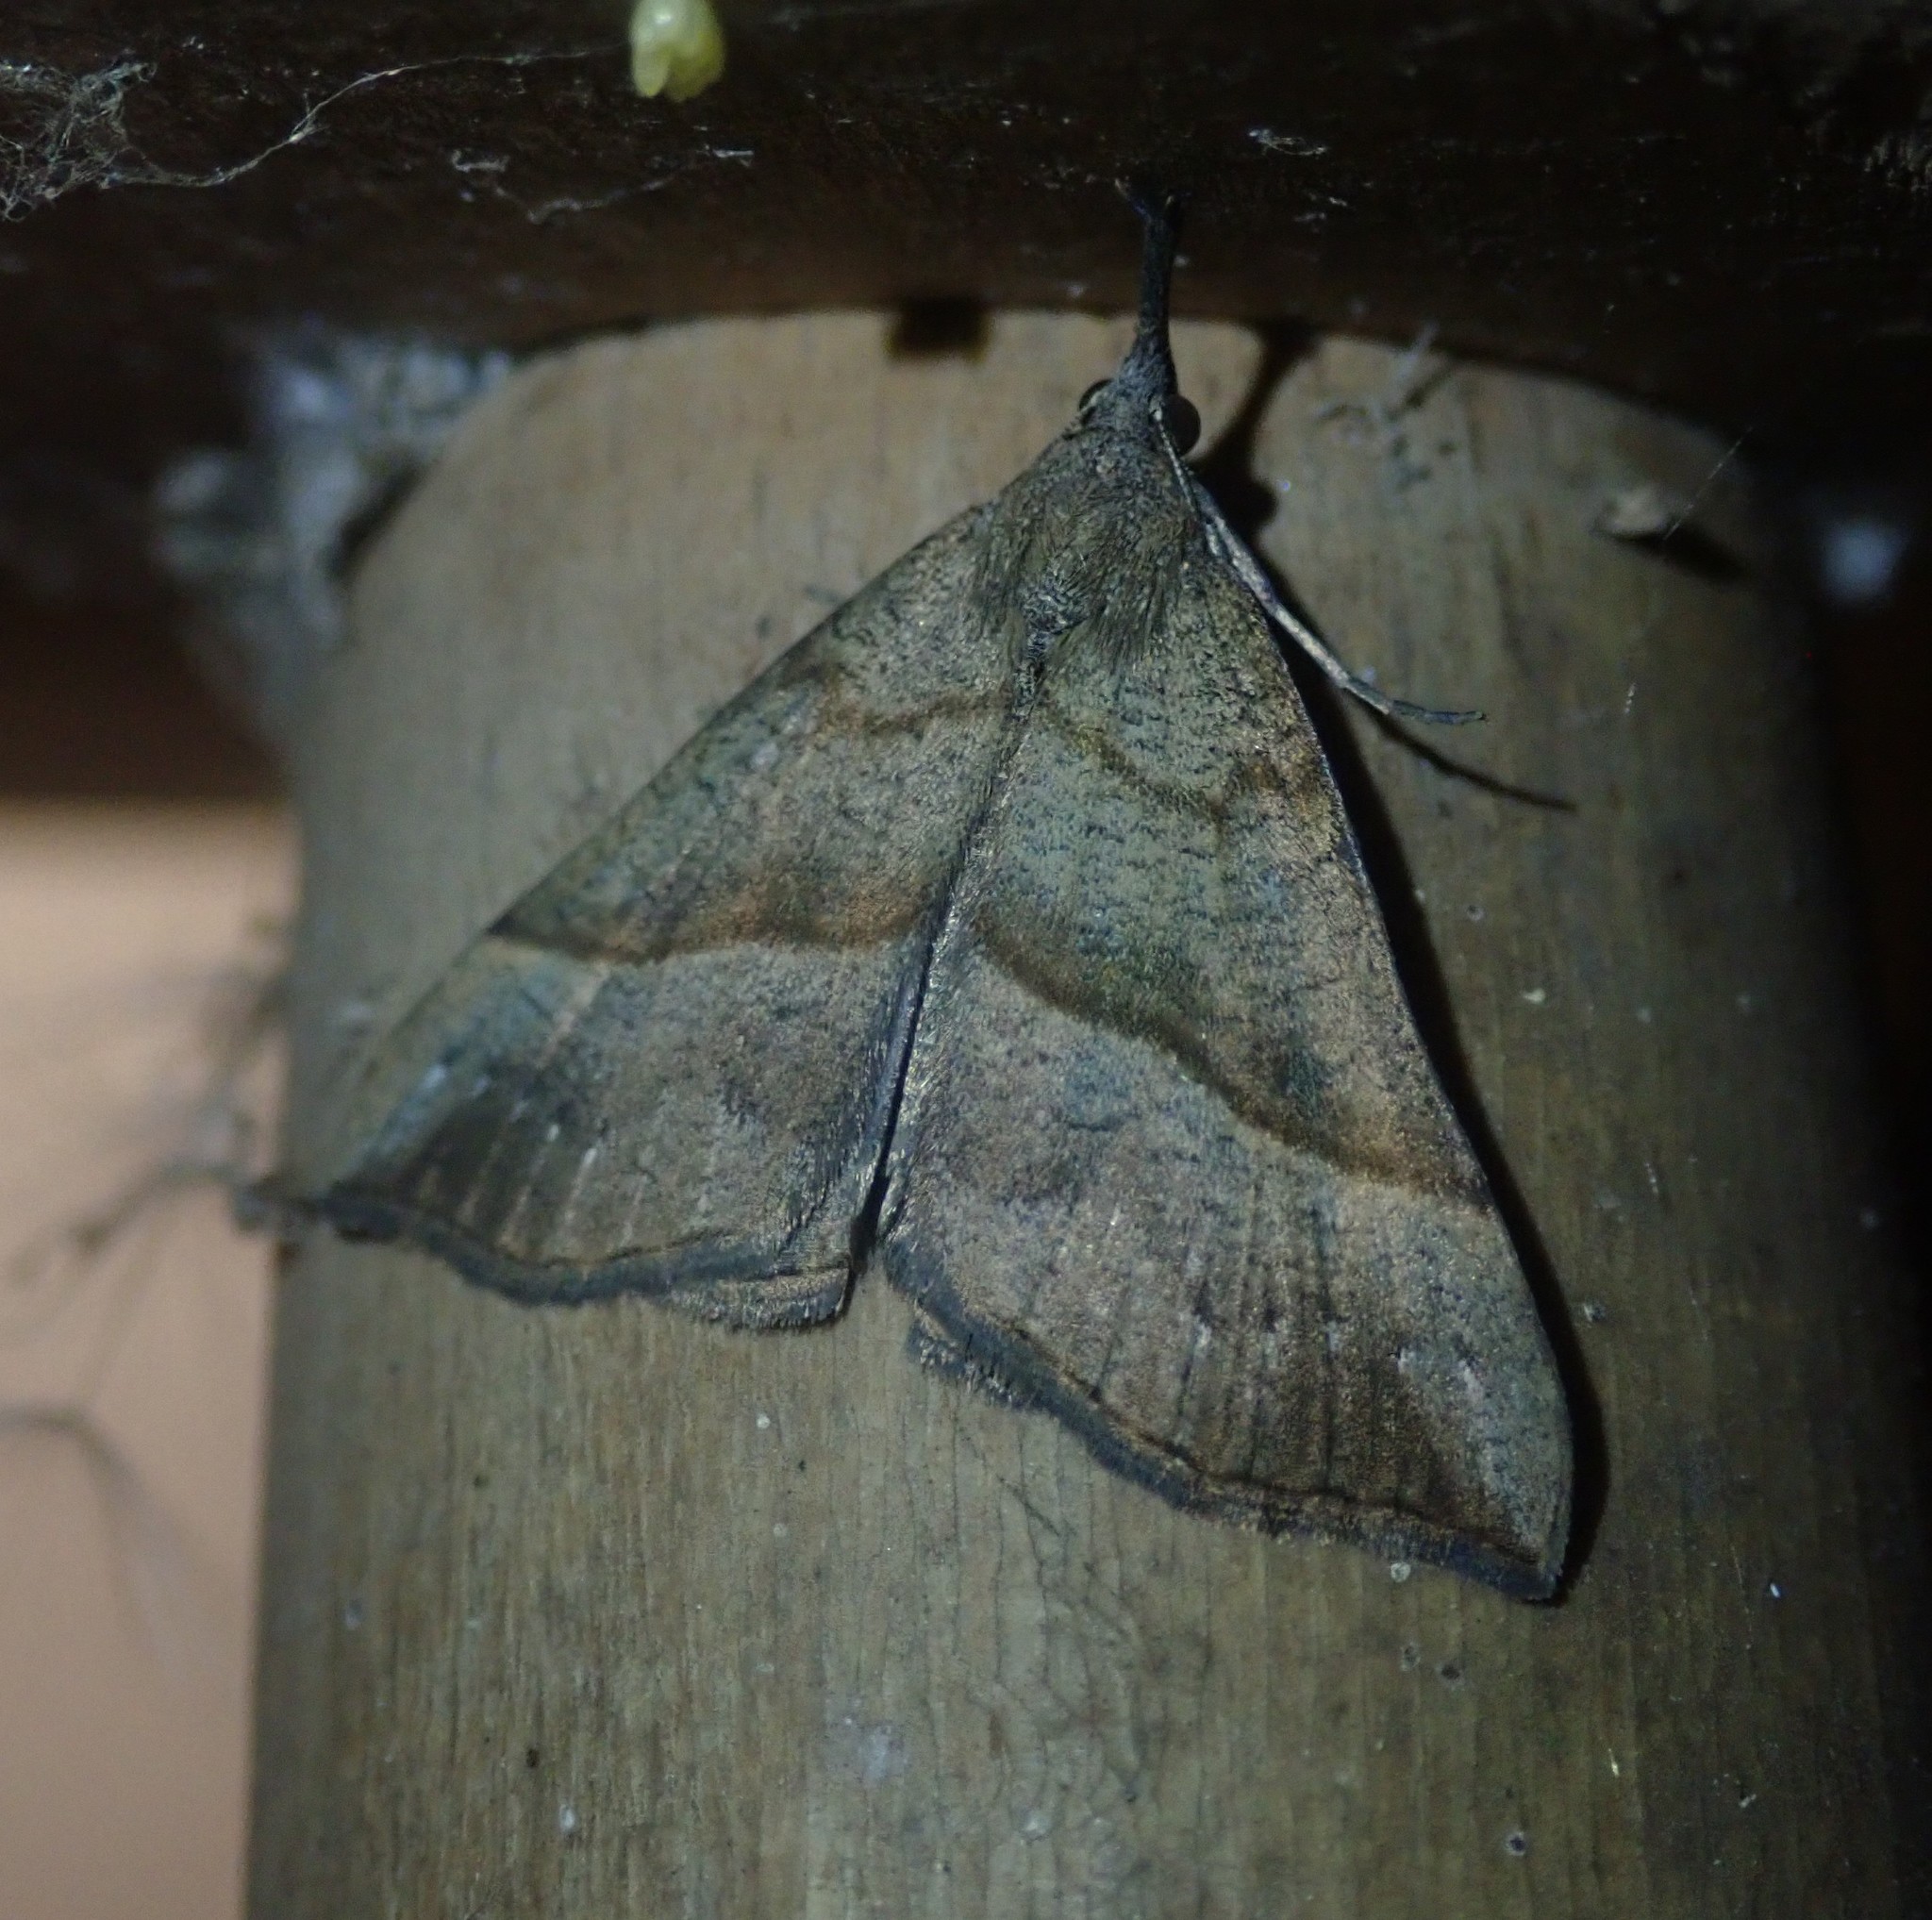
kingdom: Animalia
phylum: Arthropoda
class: Insecta
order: Lepidoptera
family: Erebidae
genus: Hypena
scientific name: Hypena proboscidalis
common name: Snout
